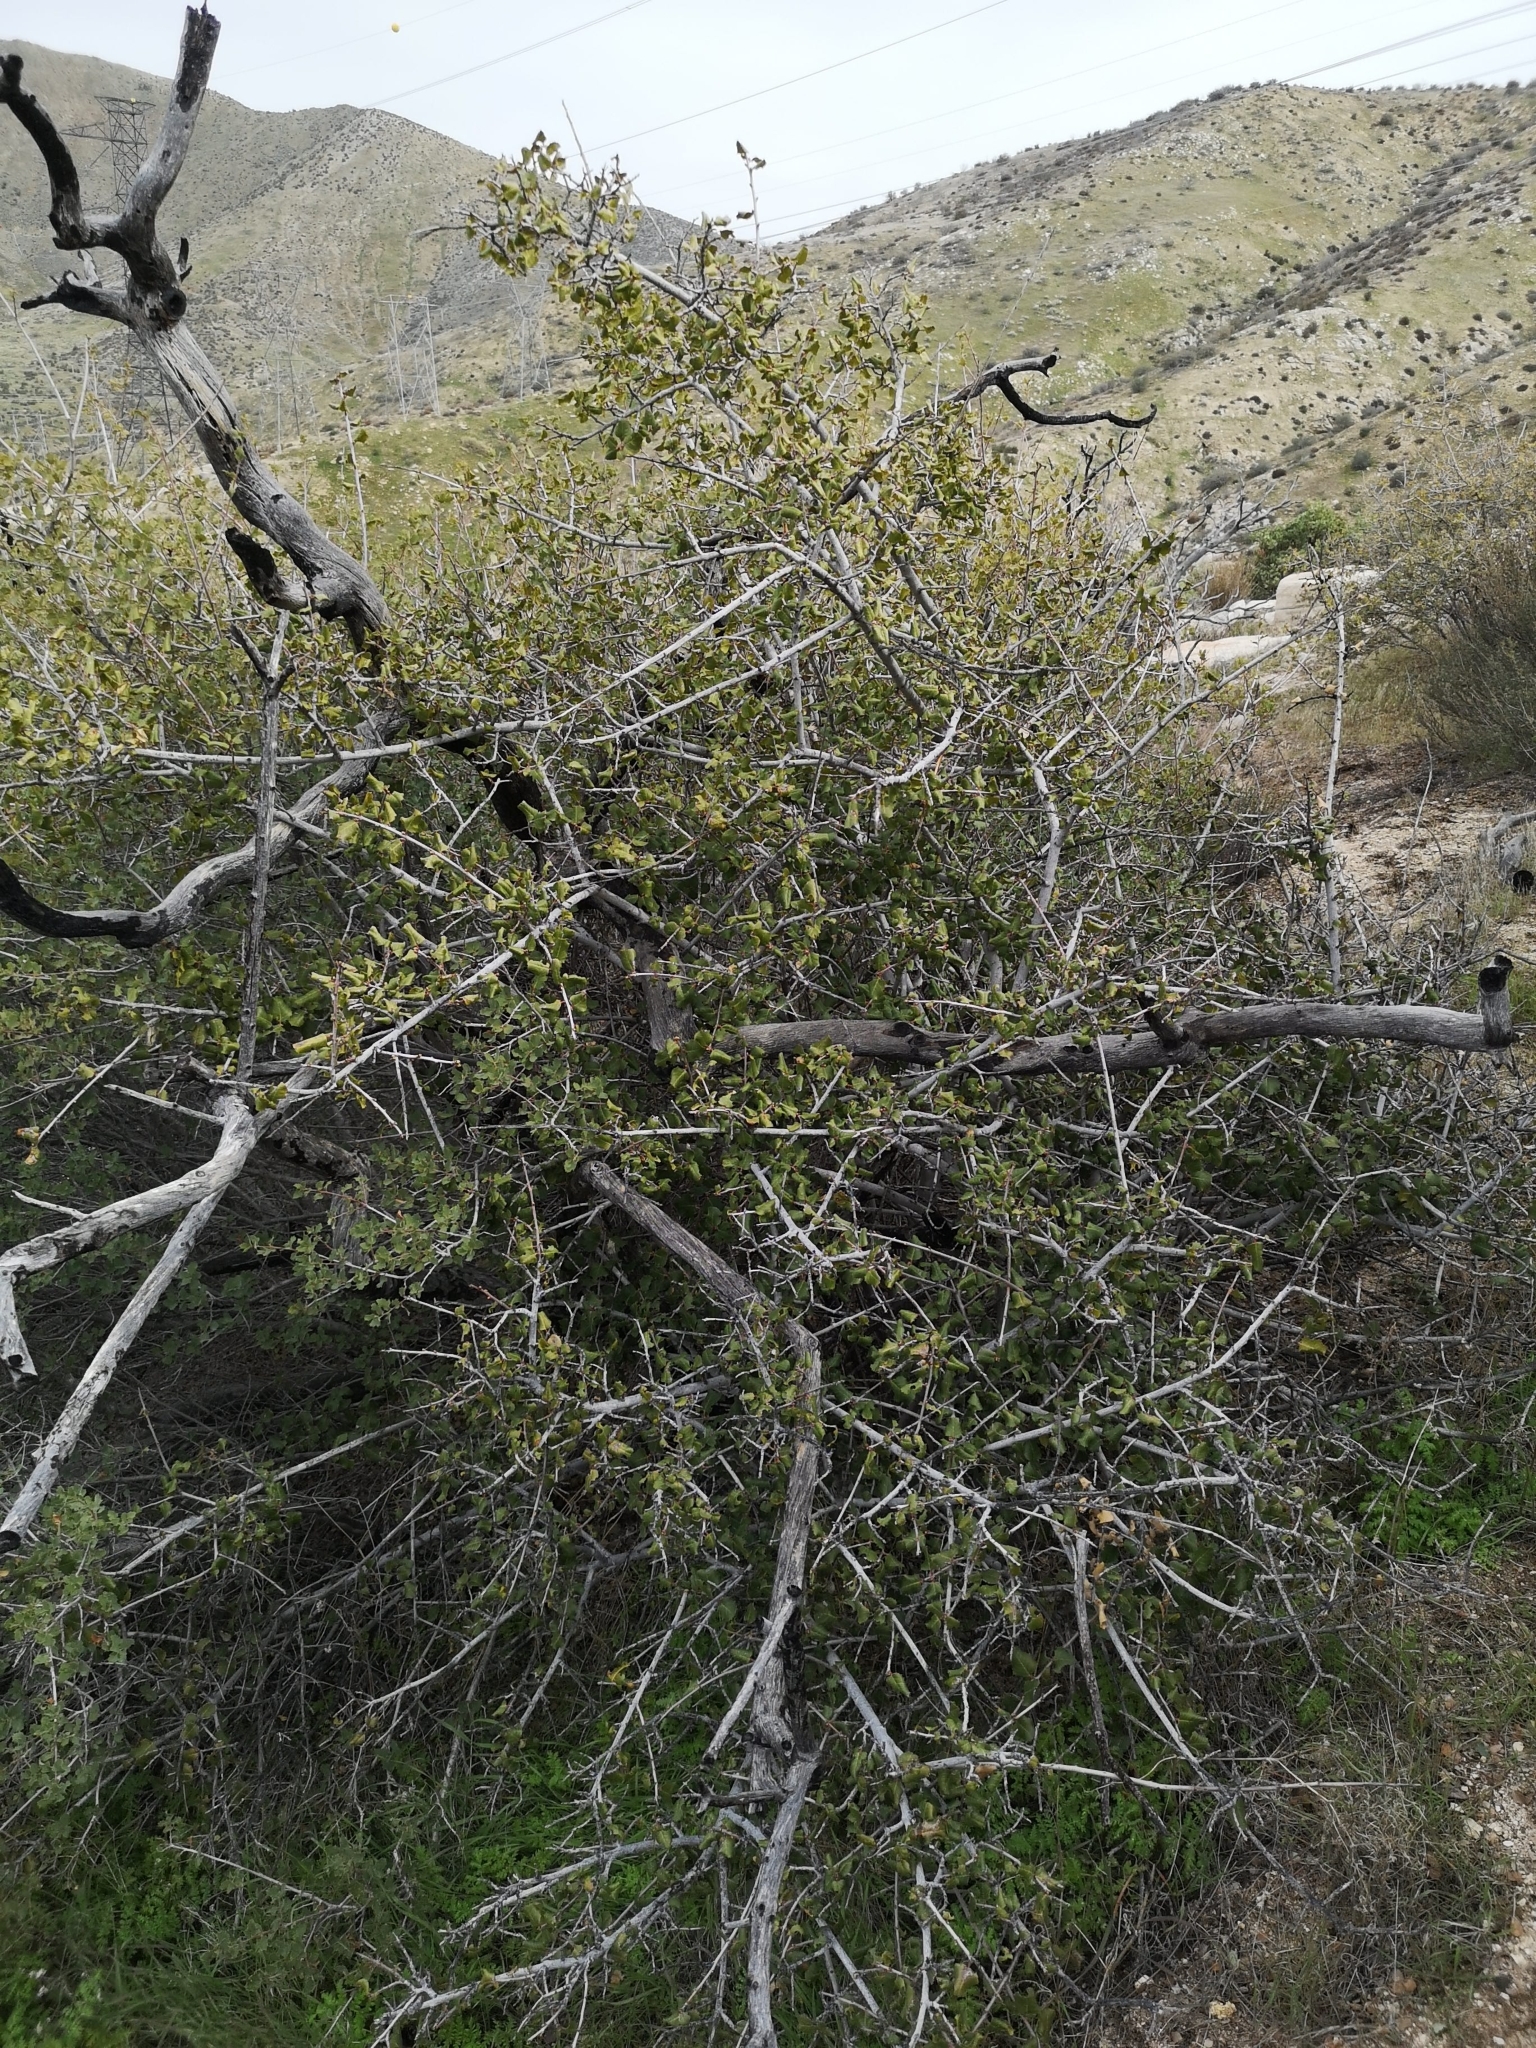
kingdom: Plantae
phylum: Tracheophyta
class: Magnoliopsida
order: Rosales
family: Rhamnaceae
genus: Endotropis
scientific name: Endotropis crocea
